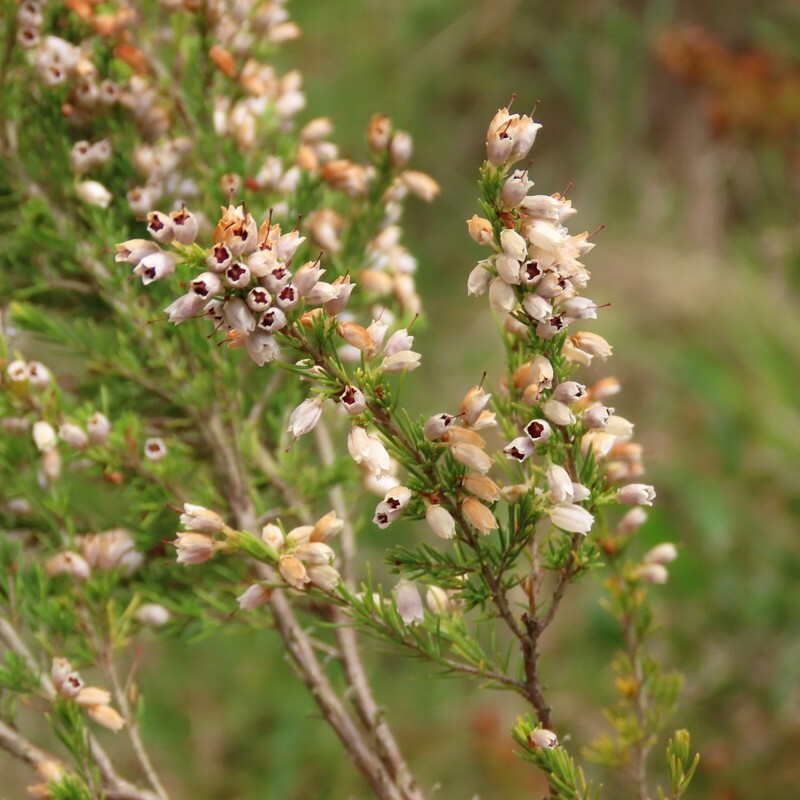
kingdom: Plantae
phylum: Tracheophyta
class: Magnoliopsida
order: Ericales
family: Ericaceae
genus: Erica
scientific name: Erica lusitanica
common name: Spanish heath
